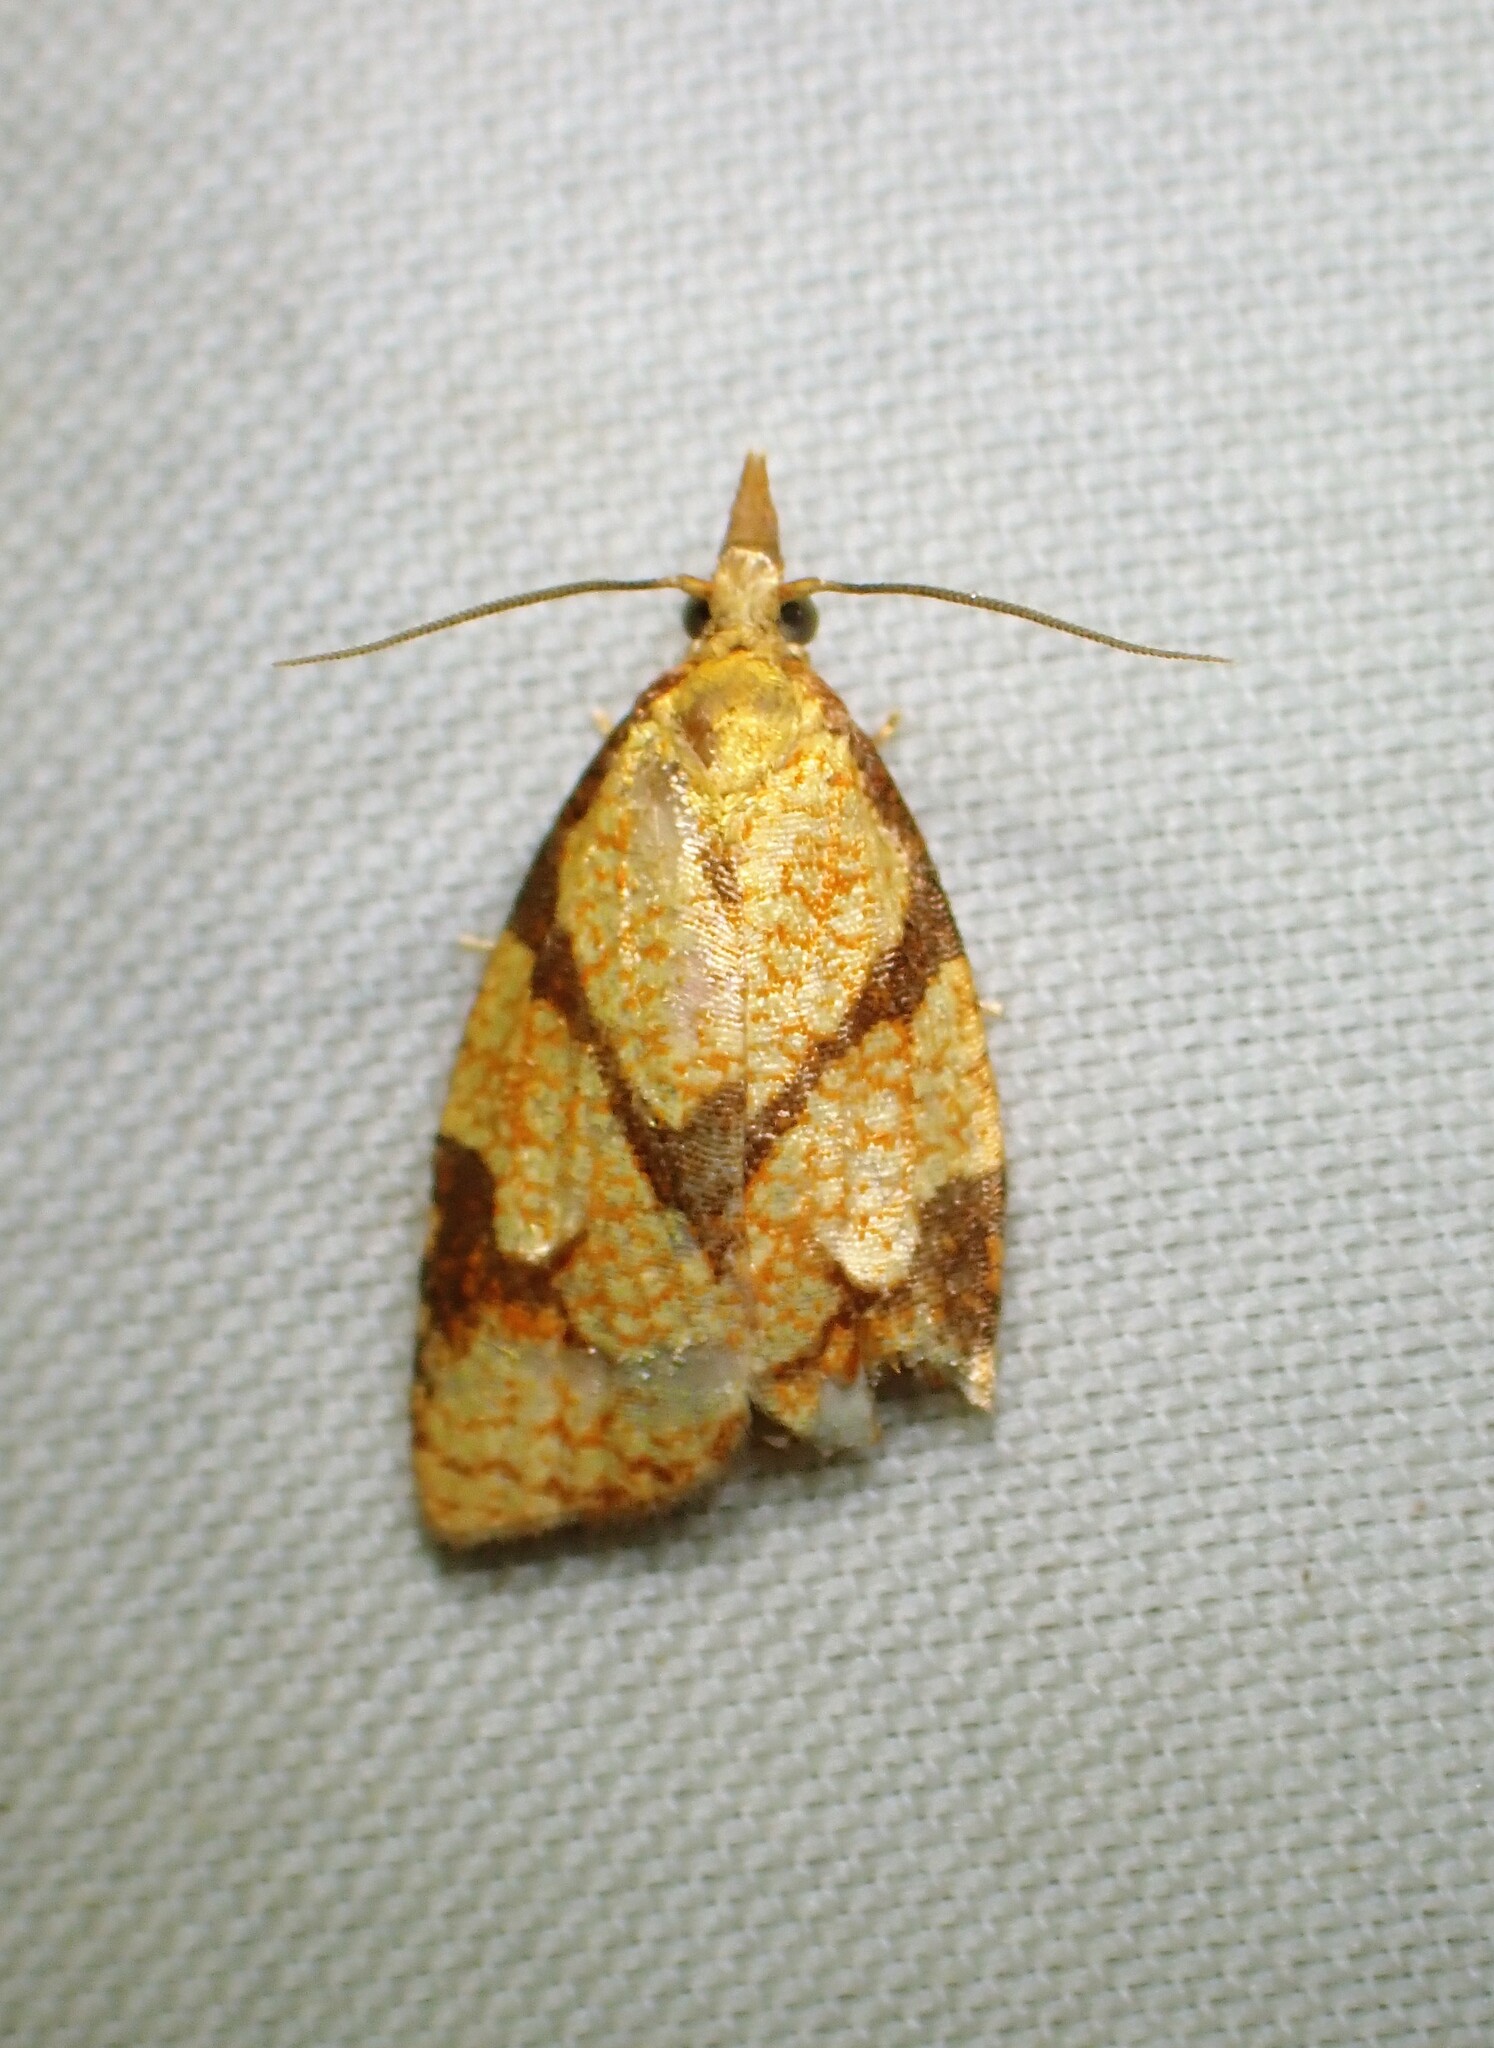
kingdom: Animalia
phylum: Arthropoda
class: Insecta
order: Lepidoptera
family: Tortricidae
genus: Cenopis
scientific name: Cenopis reticulatana
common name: Reticulated fruitworm moth
